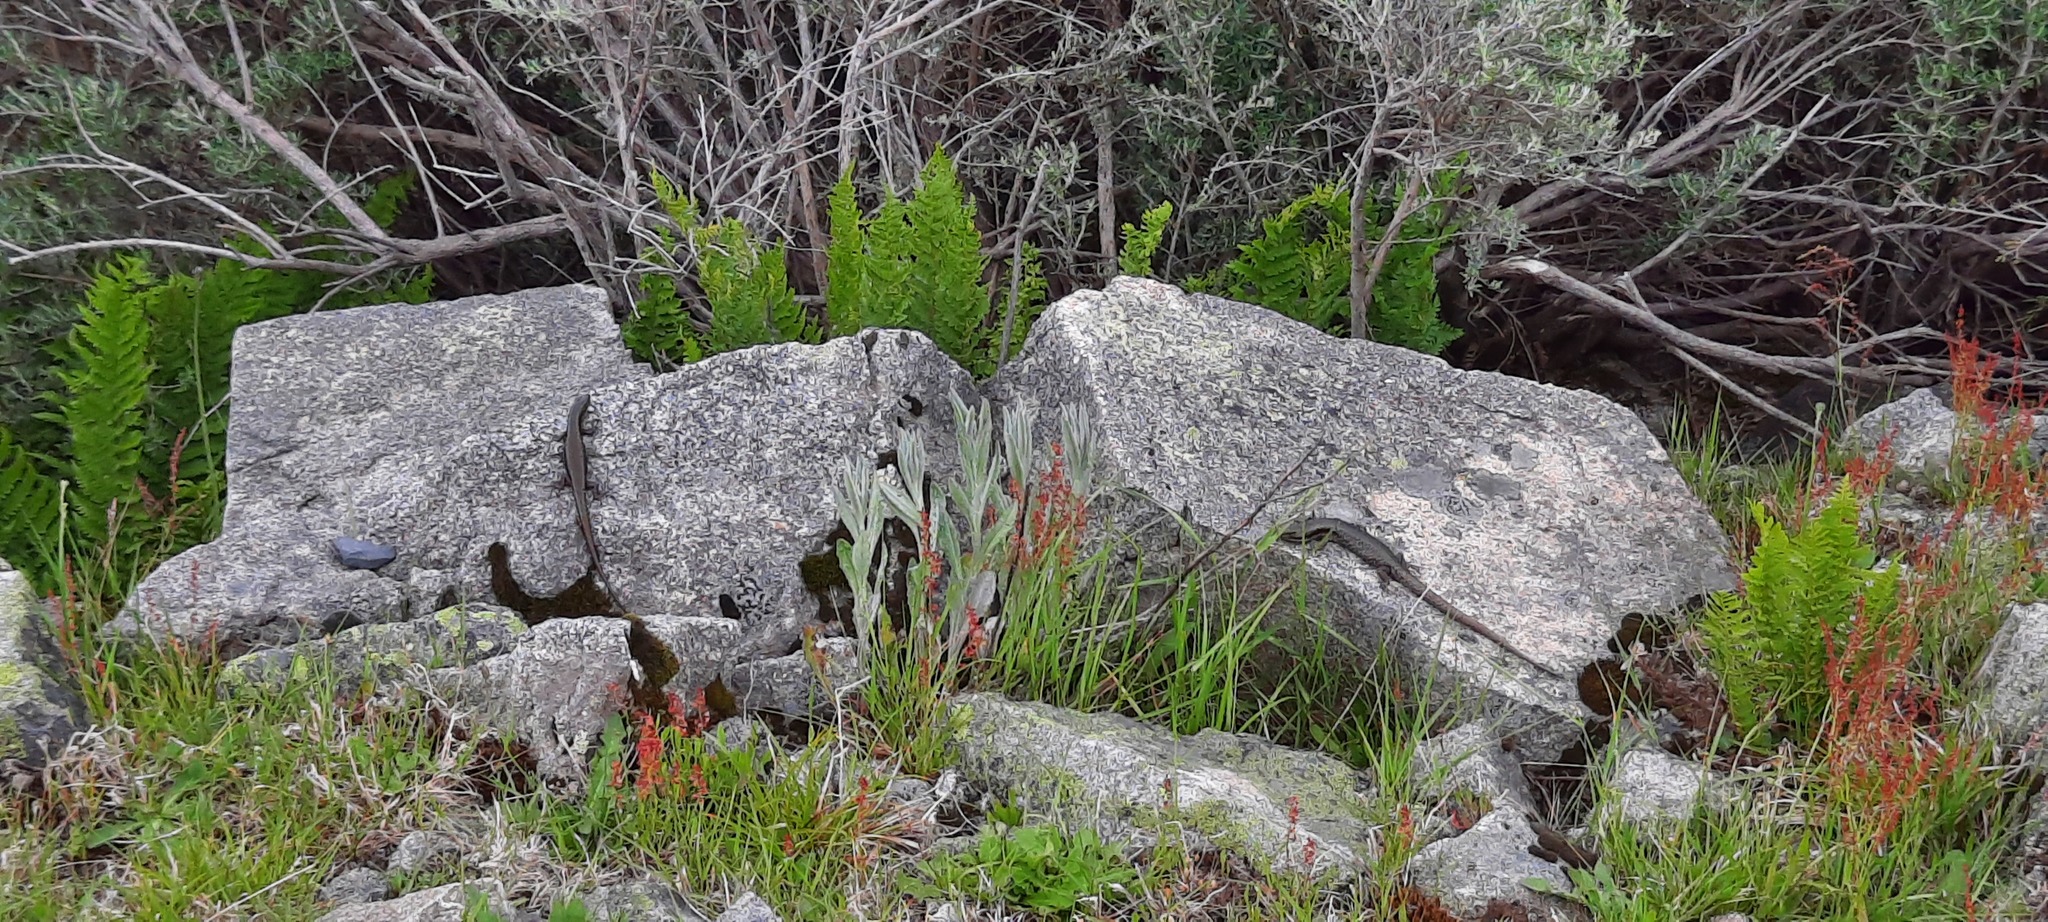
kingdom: Animalia
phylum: Chordata
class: Squamata
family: Scincidae
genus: Eulamprus
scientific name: Eulamprus tympanum
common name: Cool-temperate water-skink
